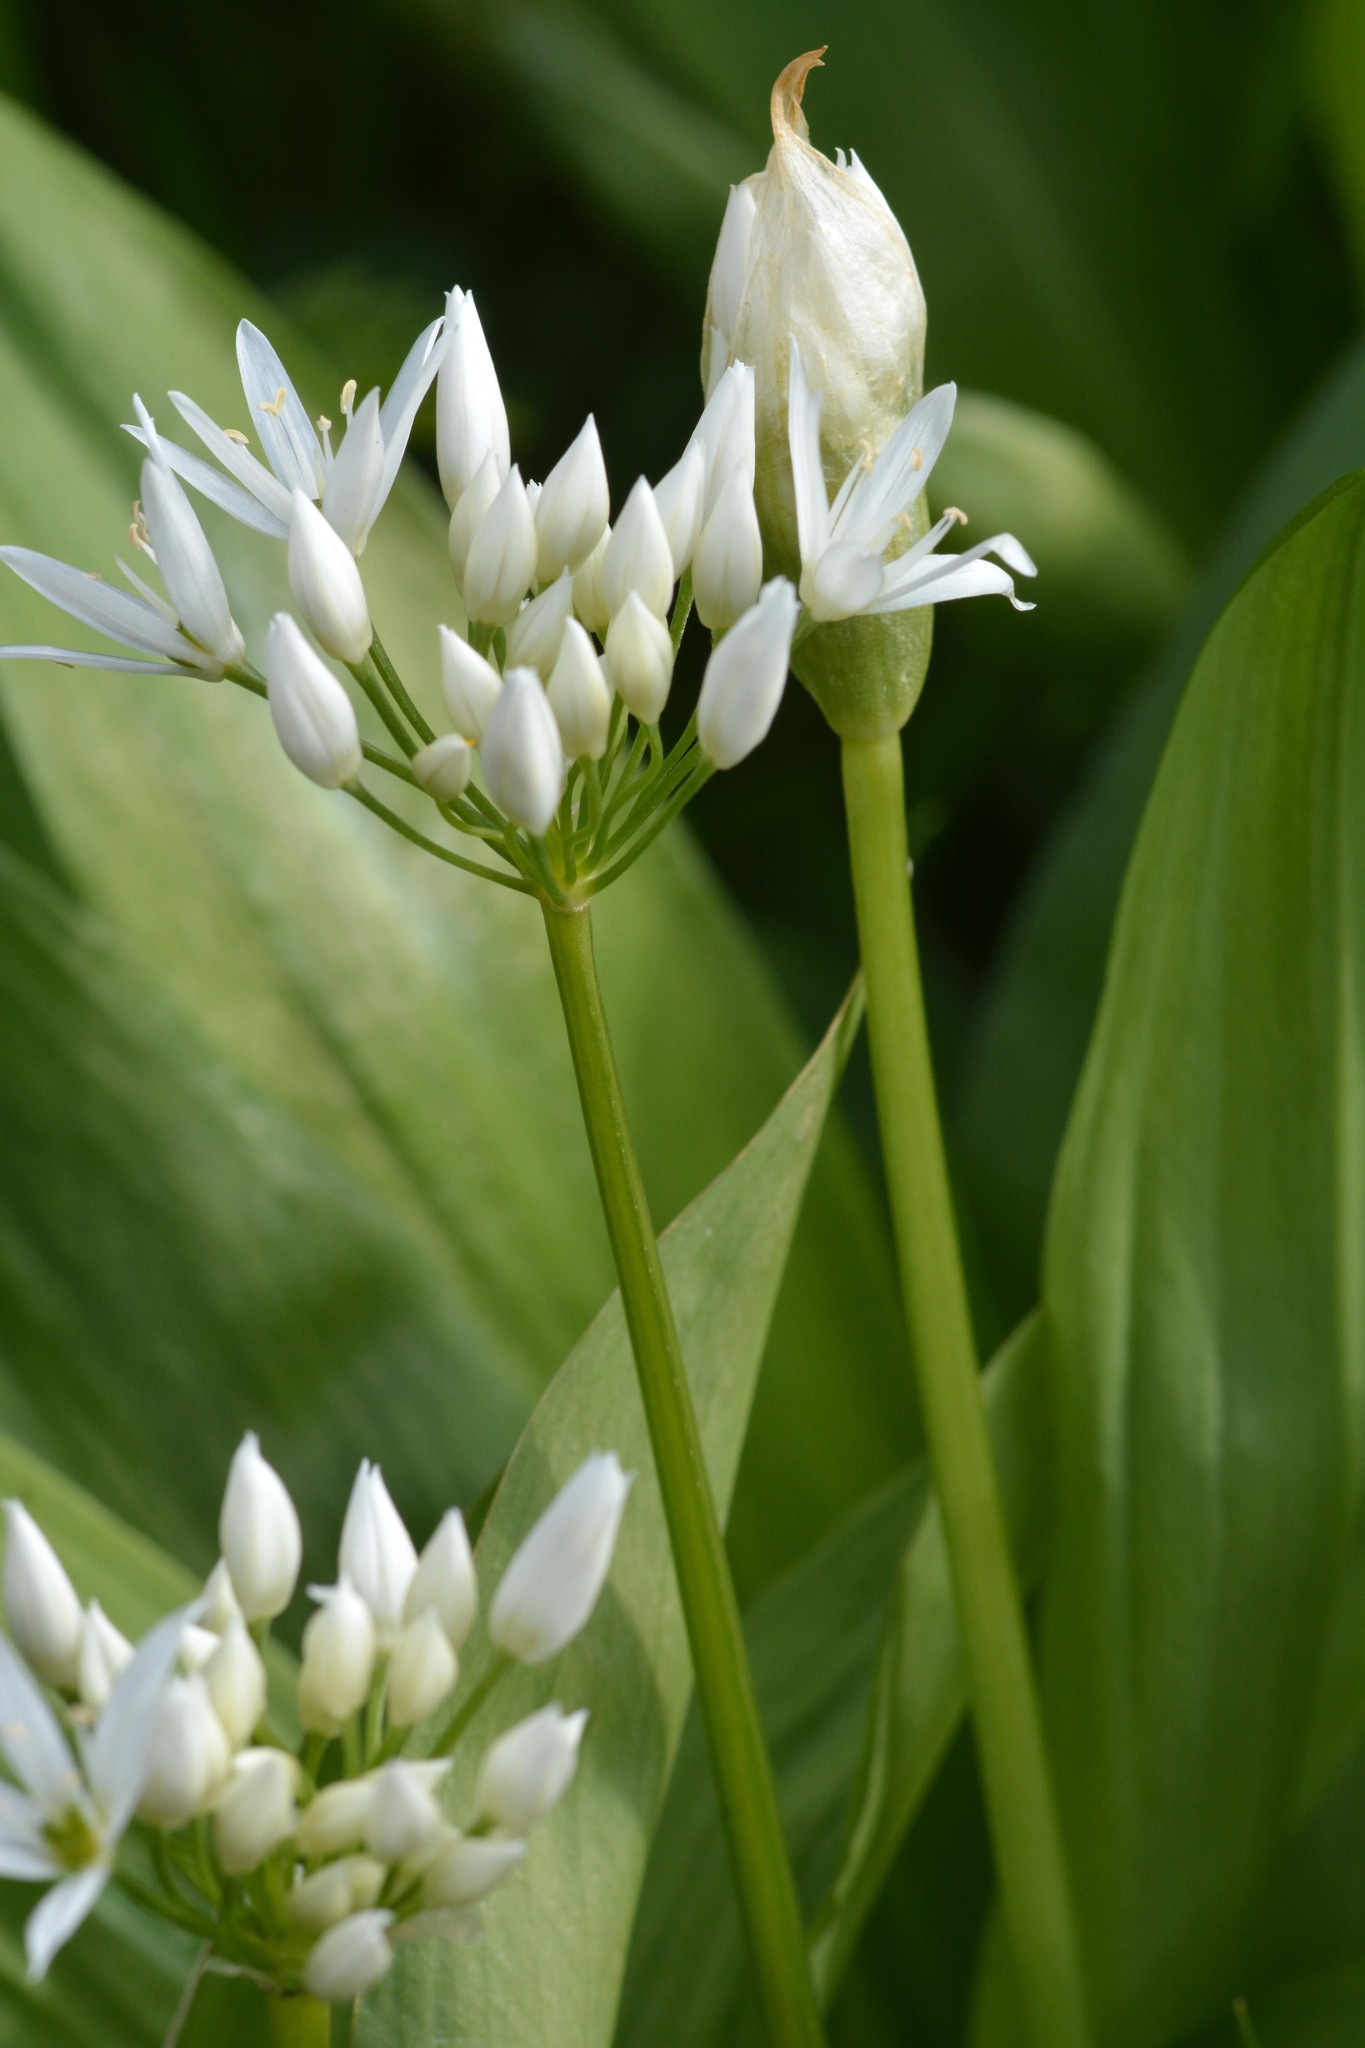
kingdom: Plantae
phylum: Tracheophyta
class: Liliopsida
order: Asparagales
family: Amaryllidaceae
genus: Allium
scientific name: Allium ursinum
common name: Ramsons
